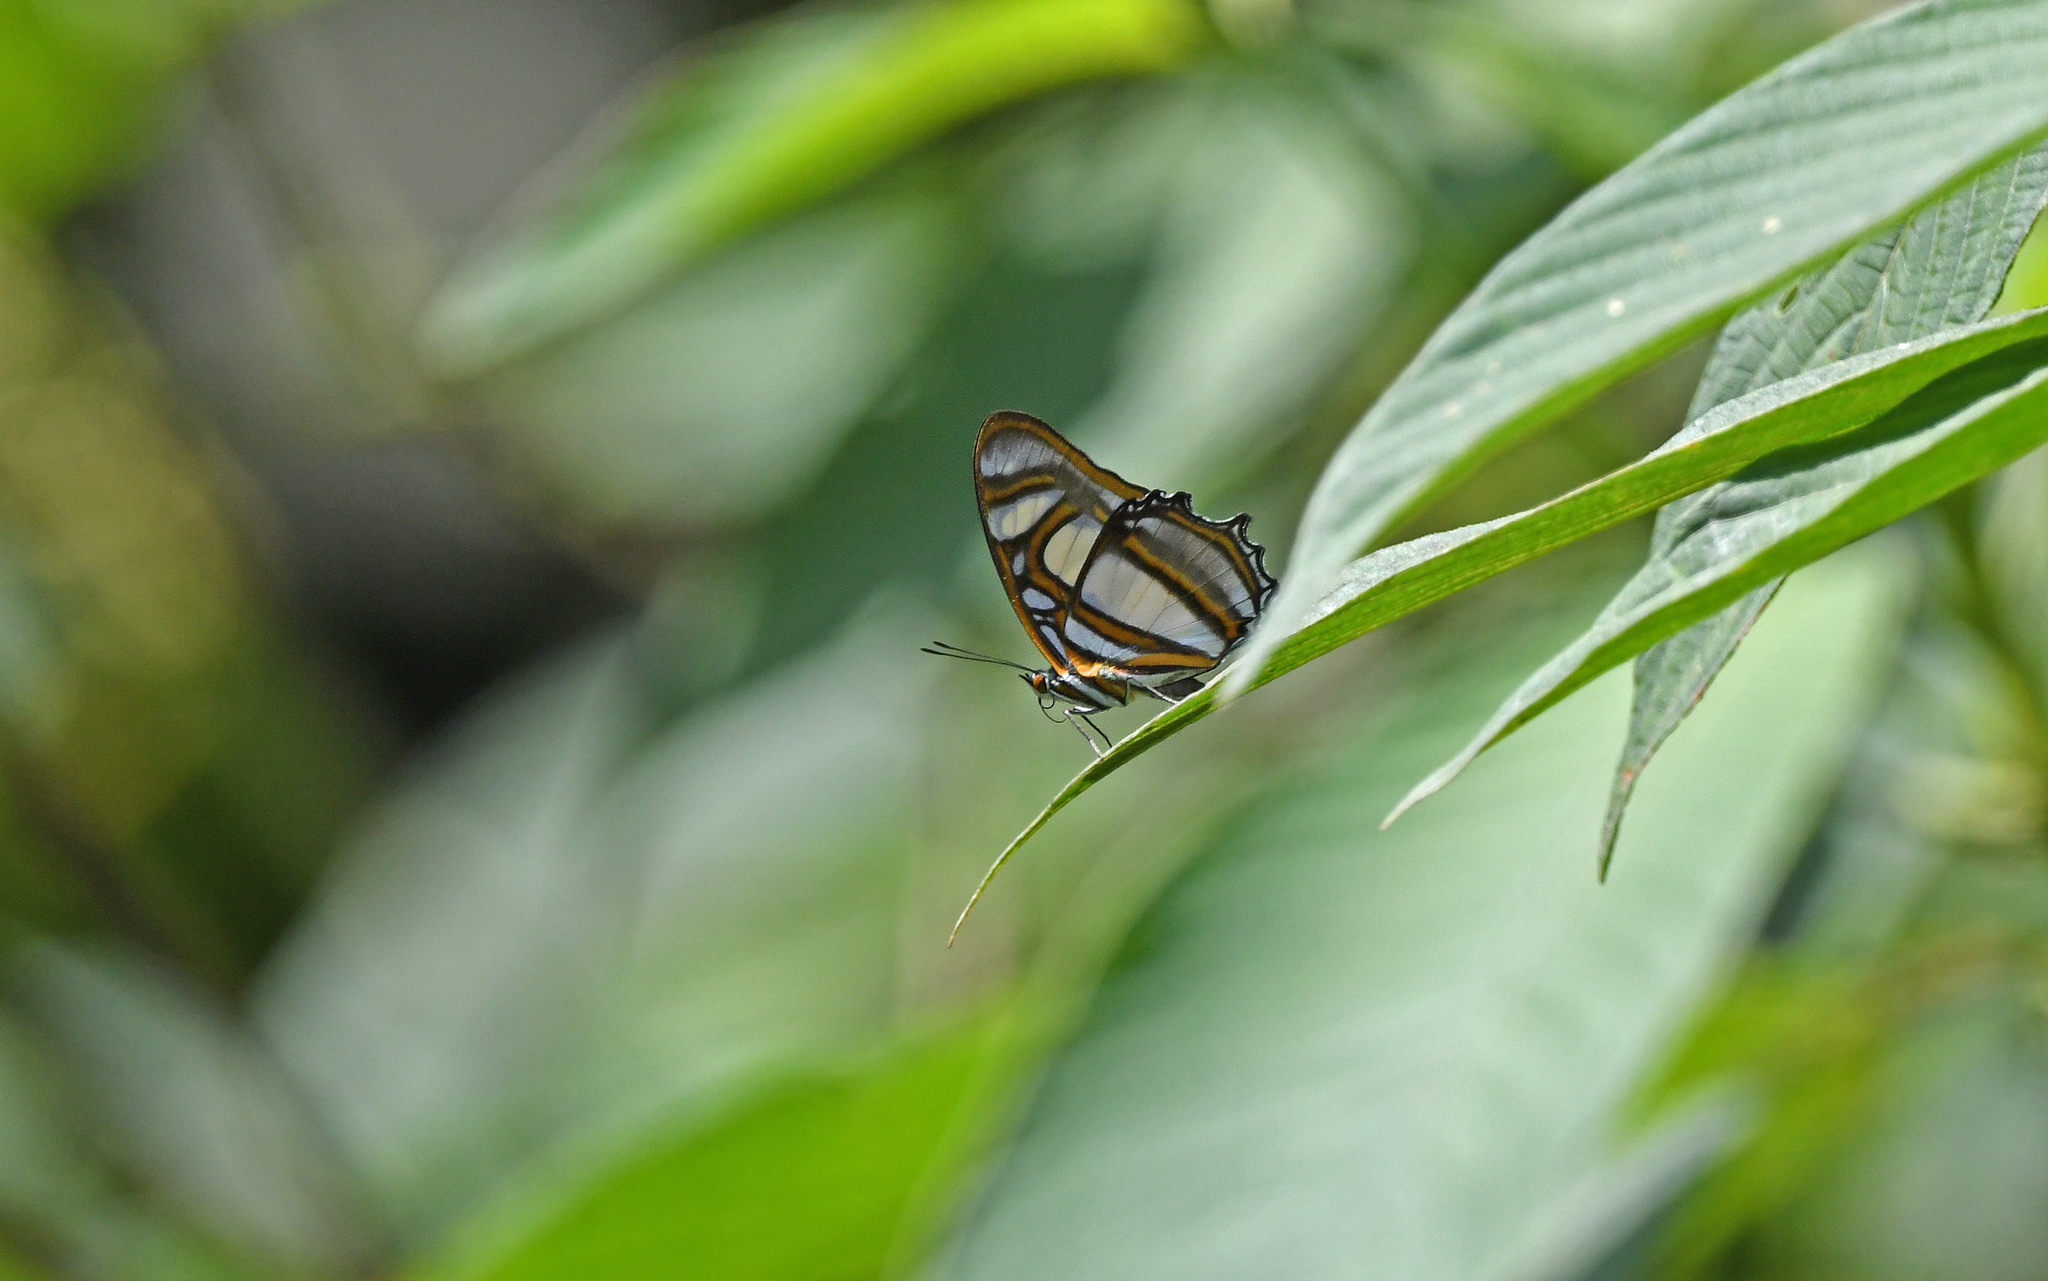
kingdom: Animalia
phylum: Arthropoda
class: Insecta
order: Lepidoptera
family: Nymphalidae
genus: Metamorpha
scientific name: Metamorpha elissa
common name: Elissa page
